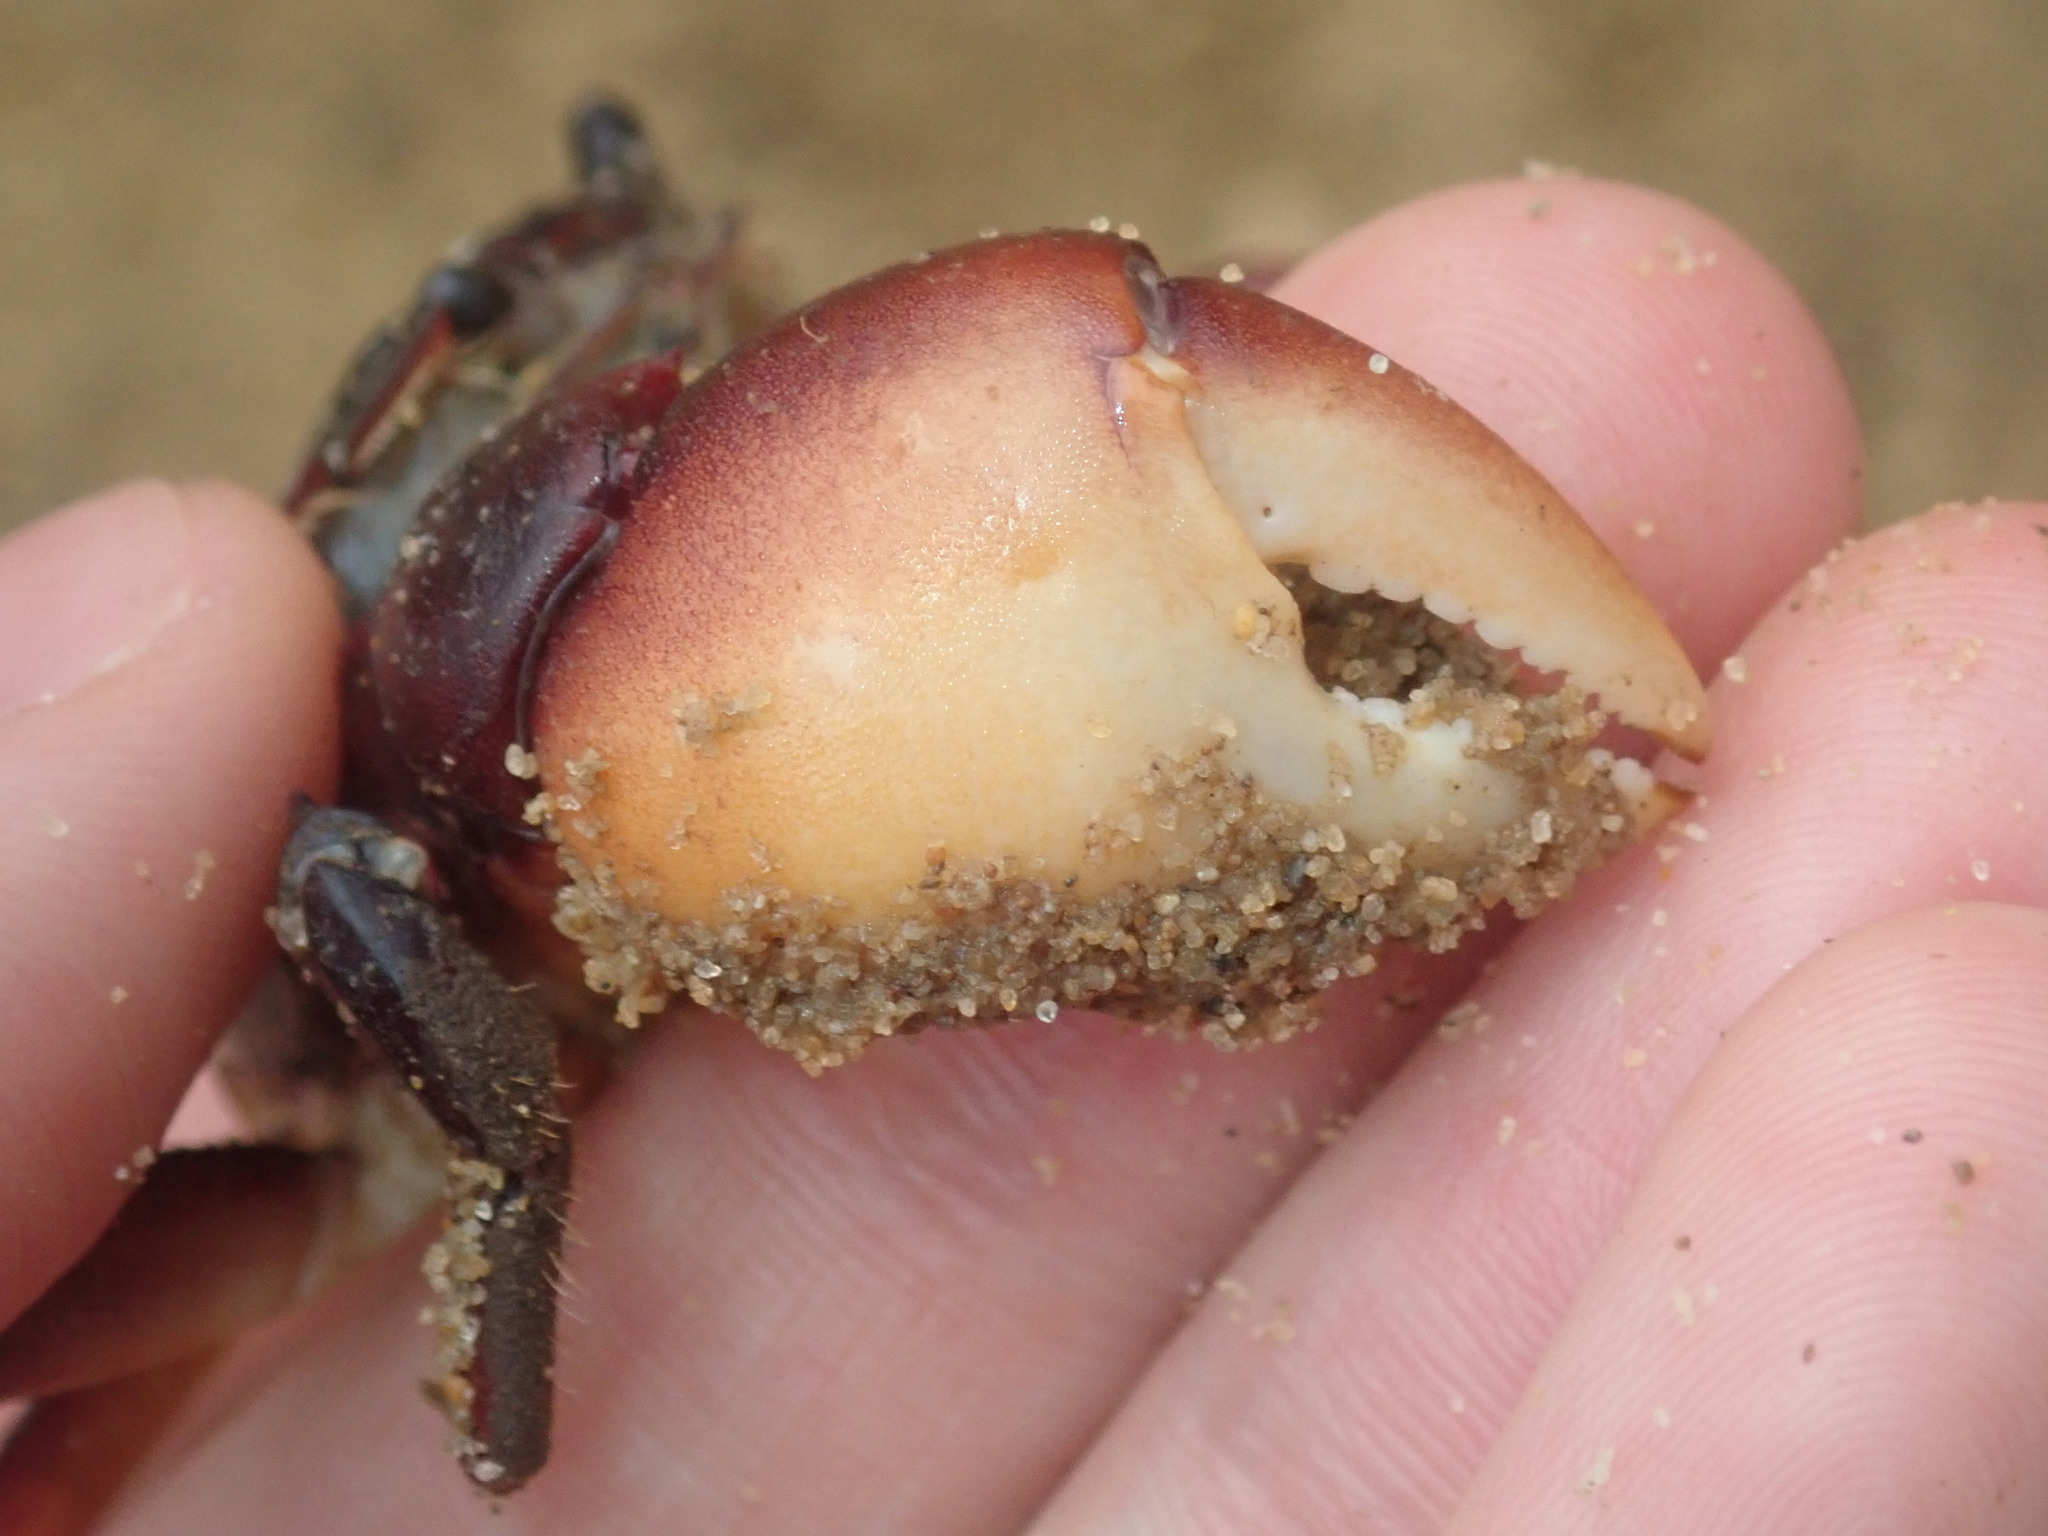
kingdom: Animalia
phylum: Arthropoda
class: Malacostraca
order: Decapoda
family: Varunidae
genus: Paragrapsus
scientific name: Paragrapsus laevis
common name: Smooth shore crab
